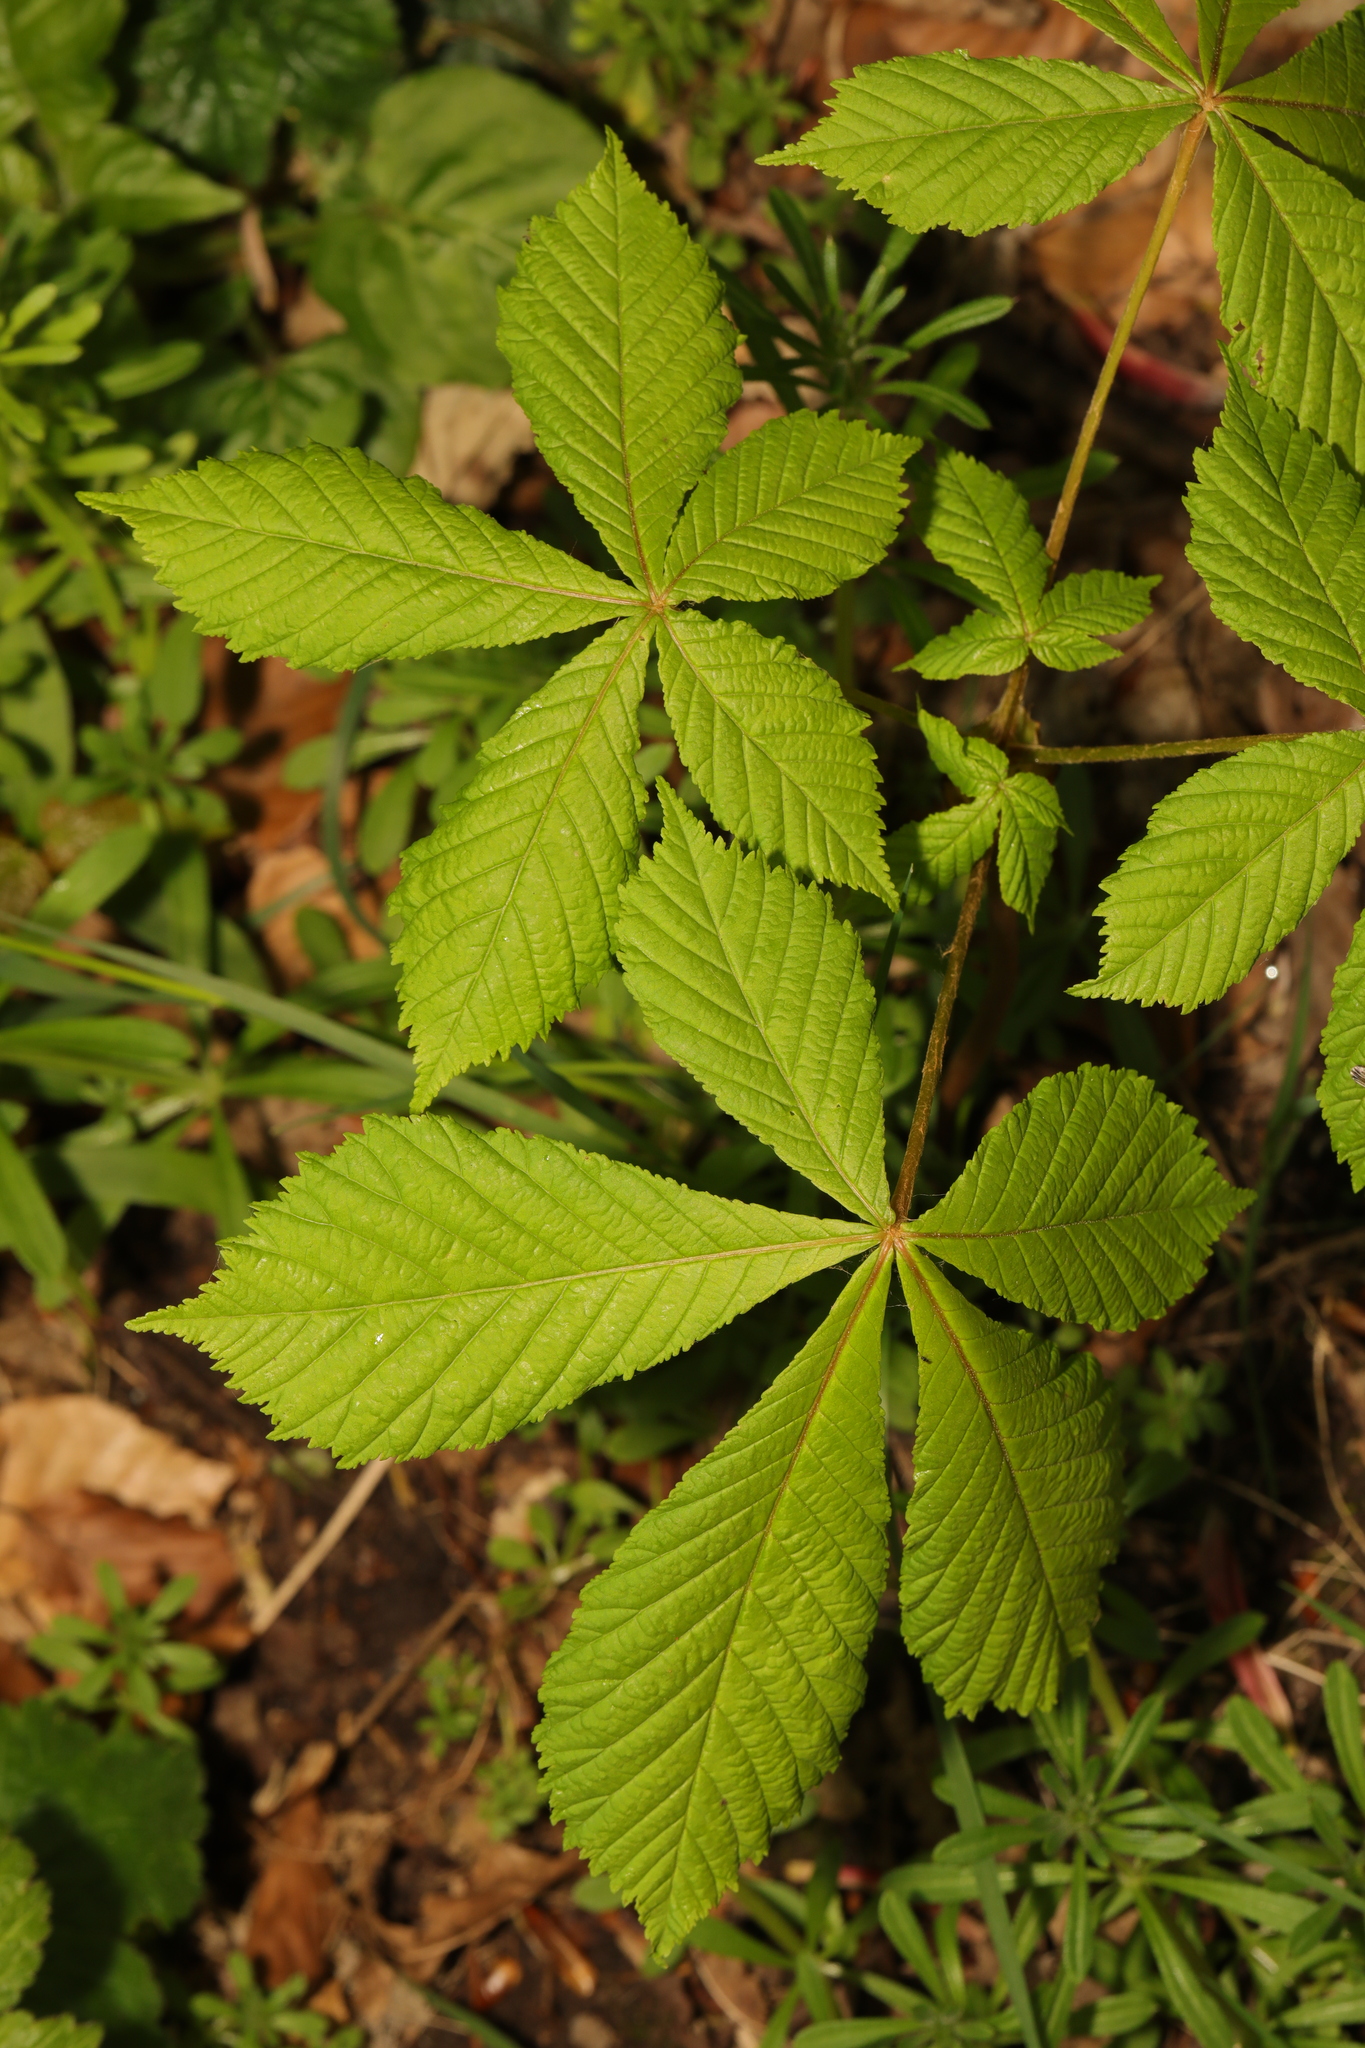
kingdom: Plantae
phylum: Tracheophyta
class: Magnoliopsida
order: Sapindales
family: Sapindaceae
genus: Aesculus
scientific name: Aesculus hippocastanum
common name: Horse-chestnut
